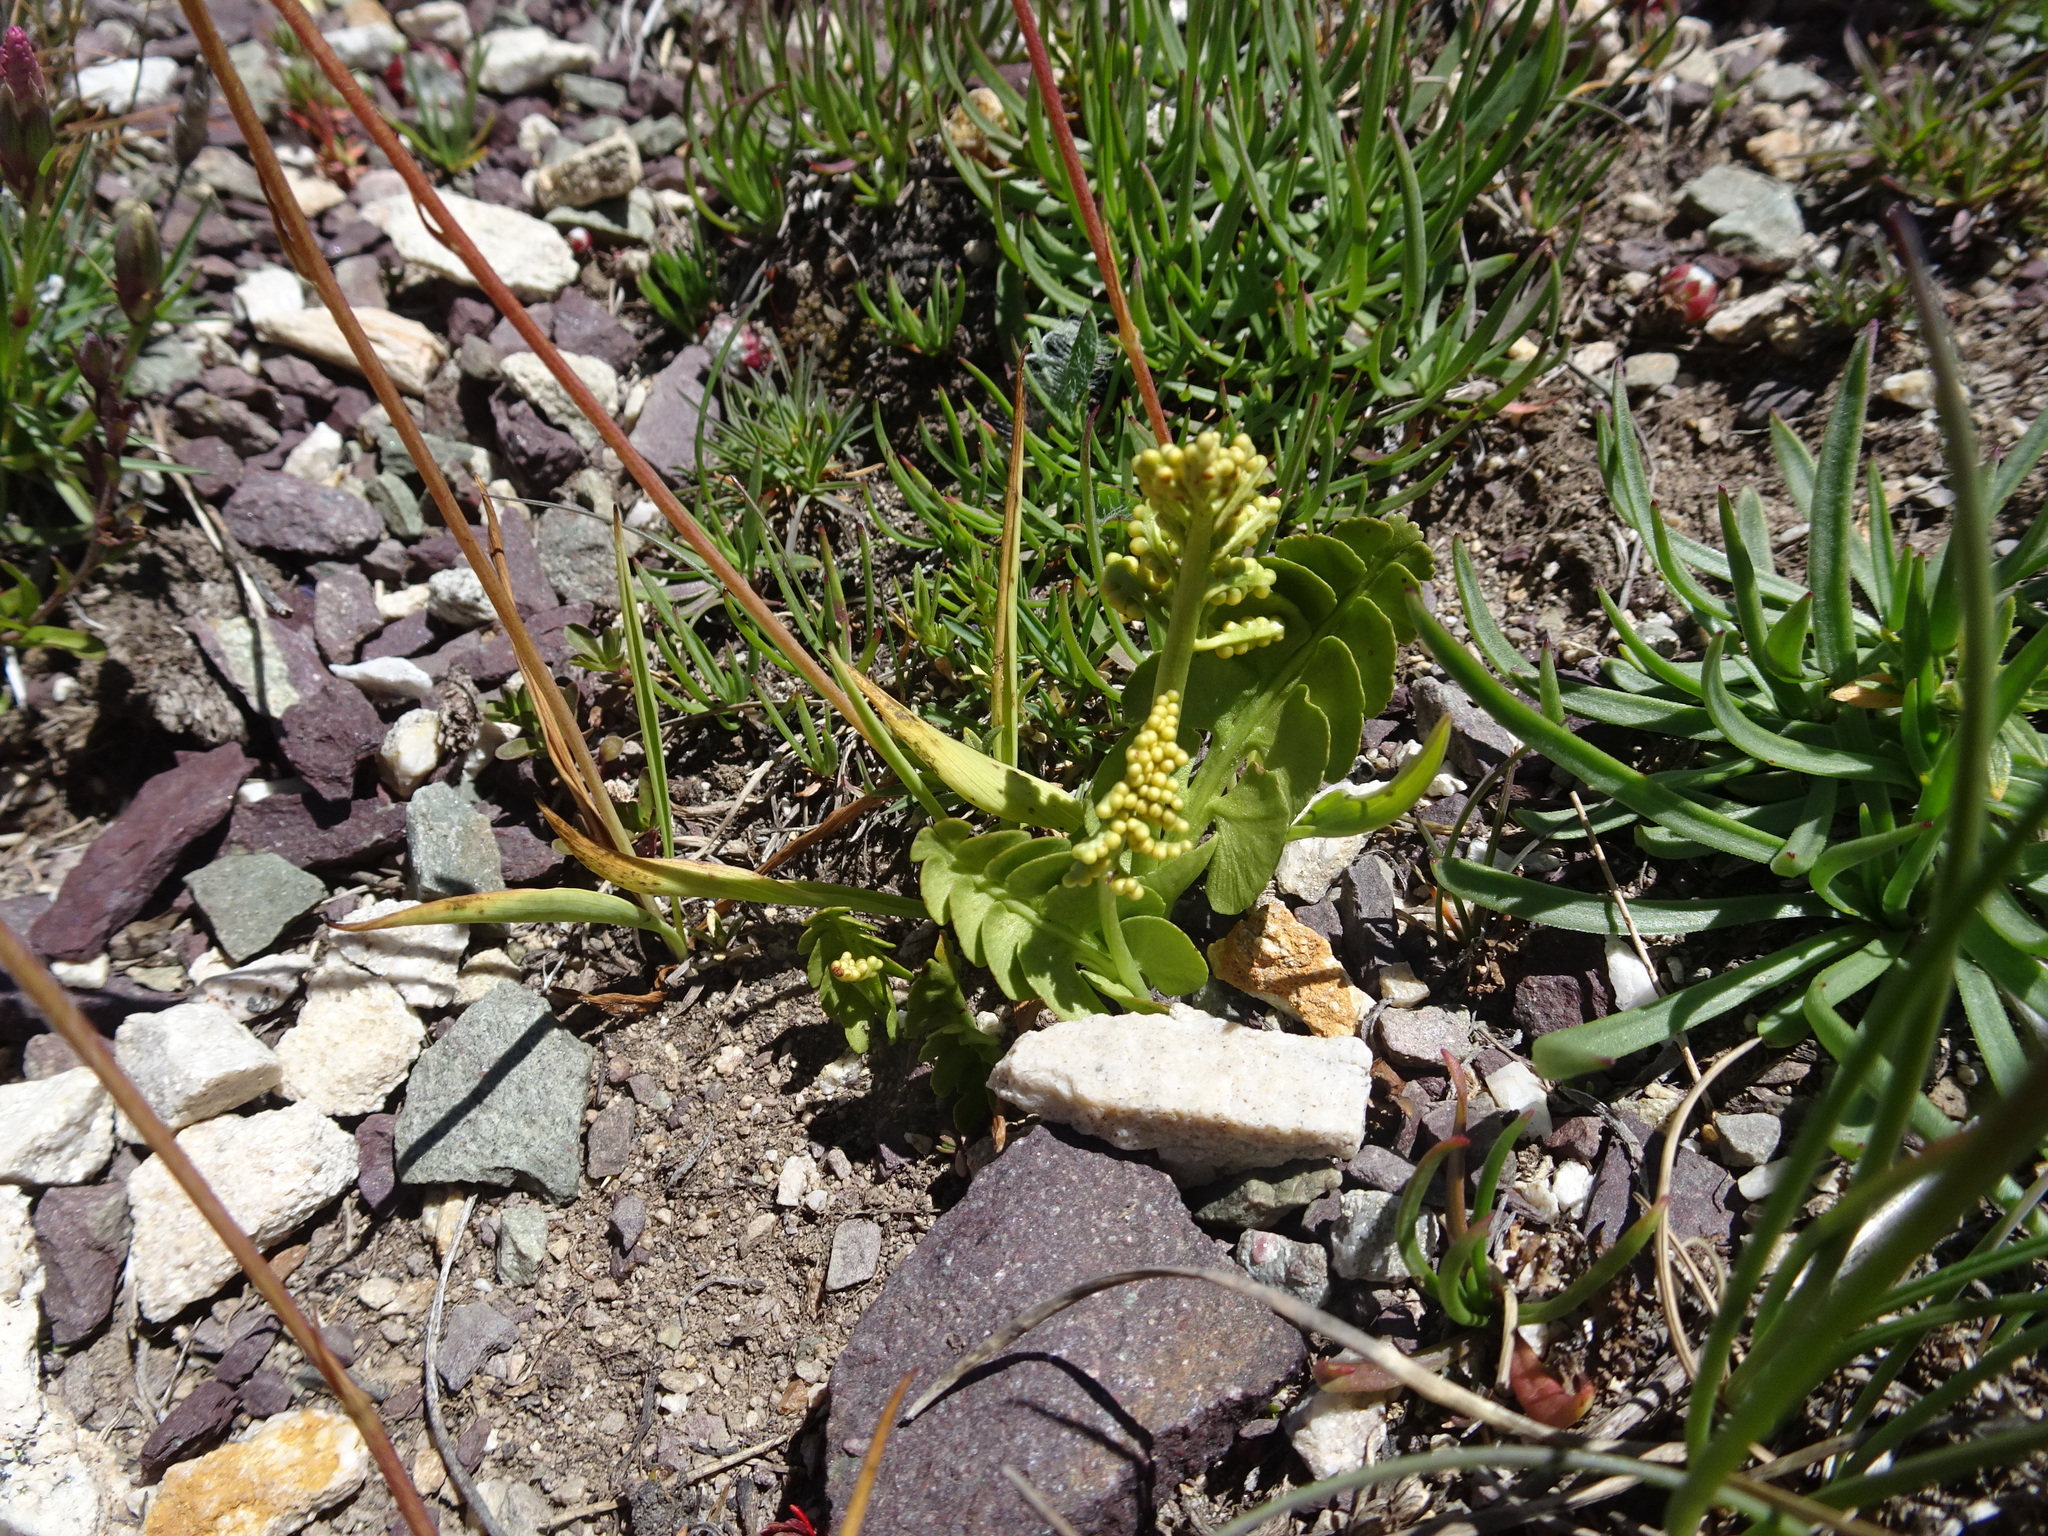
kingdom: Plantae
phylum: Tracheophyta
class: Polypodiopsida
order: Ophioglossales
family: Ophioglossaceae
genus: Botrychium
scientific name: Botrychium lunaria
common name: Moonwort
